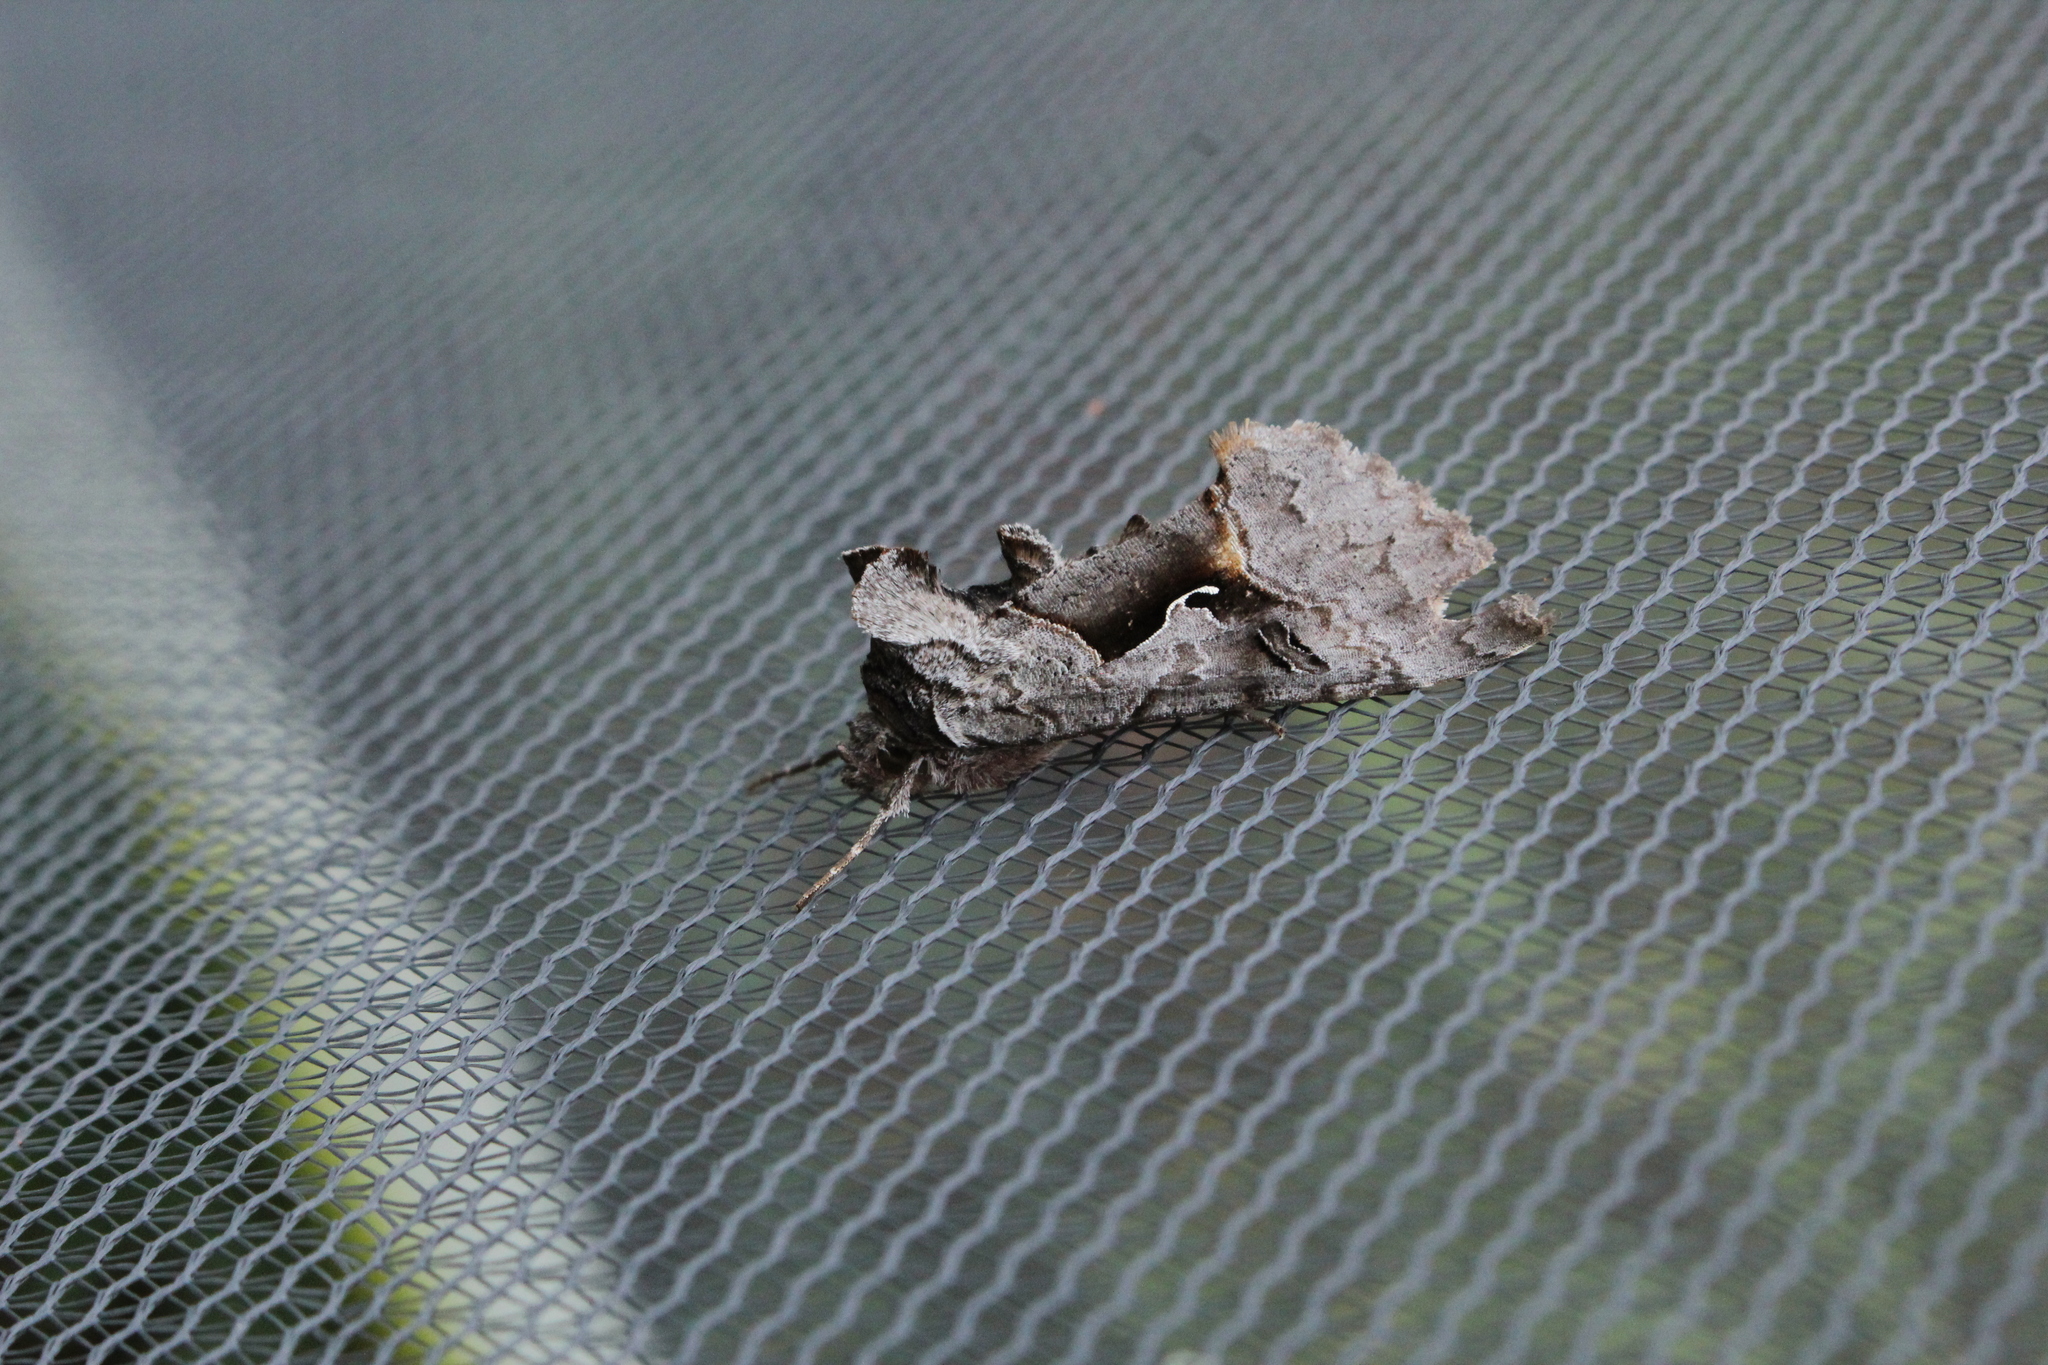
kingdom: Animalia
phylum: Arthropoda
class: Insecta
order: Lepidoptera
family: Noctuidae
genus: Syngrapha
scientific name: Syngrapha epigaea
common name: Epigaea looper moth
